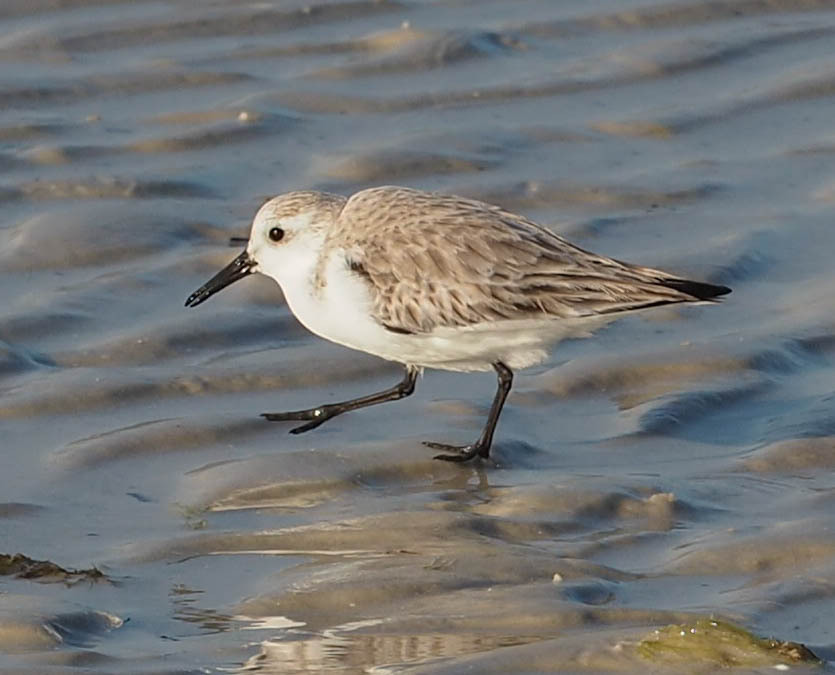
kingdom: Animalia
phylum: Chordata
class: Aves
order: Charadriiformes
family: Scolopacidae
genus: Calidris
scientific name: Calidris alba
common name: Sanderling
